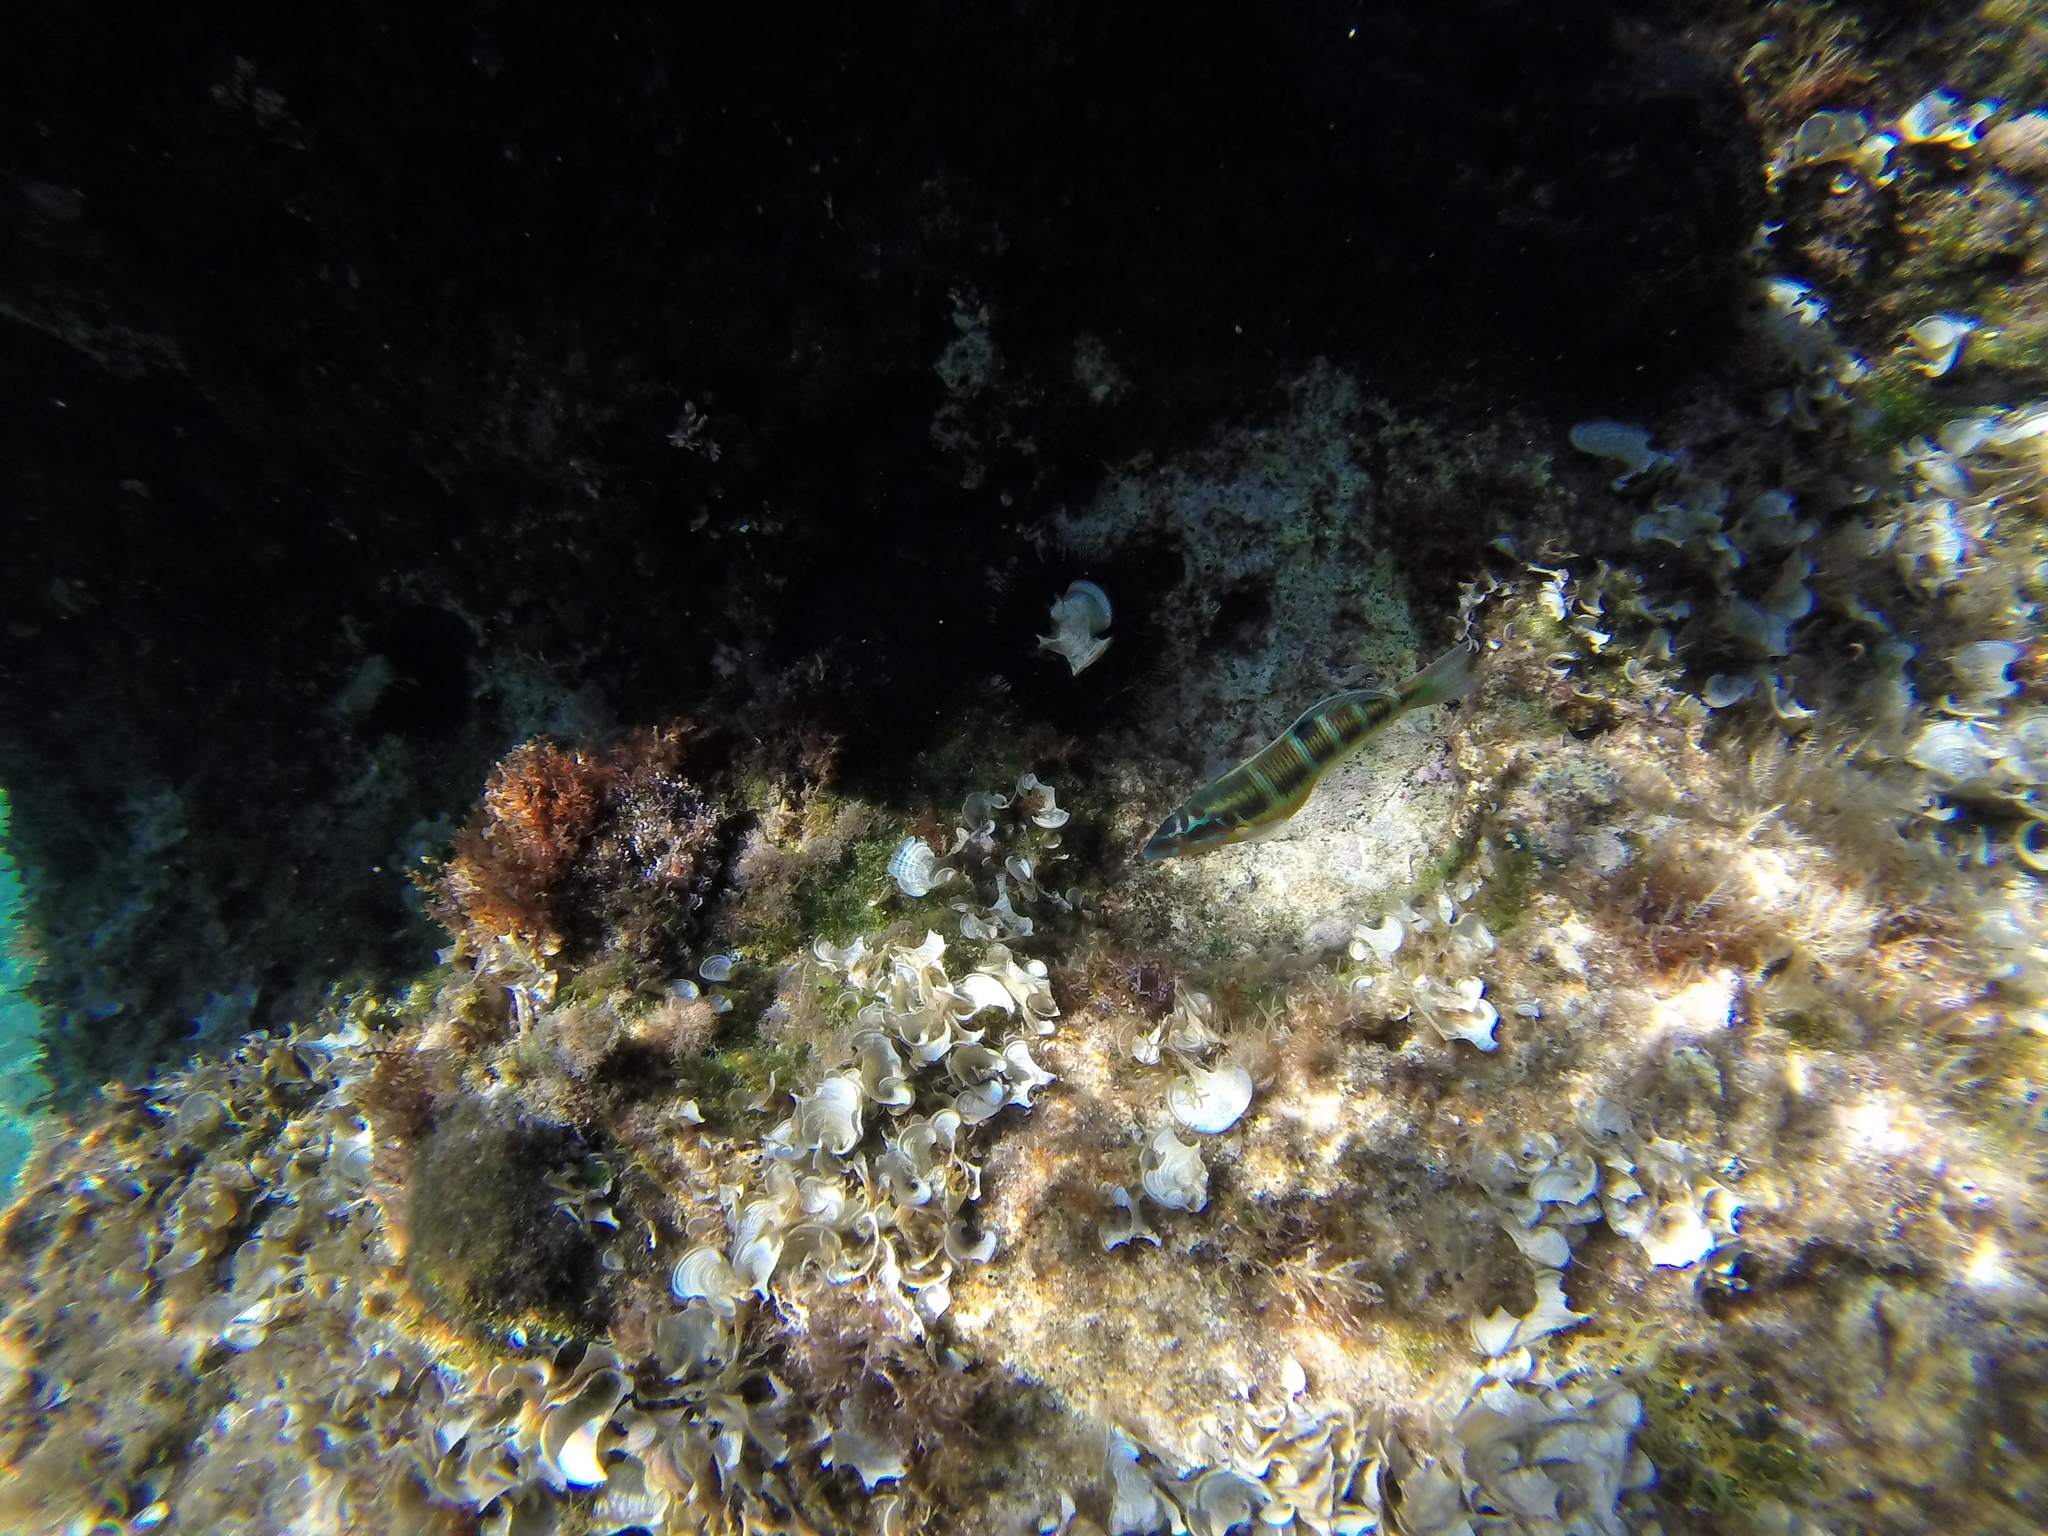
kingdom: Animalia
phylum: Chordata
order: Perciformes
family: Labridae
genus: Thalassoma
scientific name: Thalassoma pavo
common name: Ornate wrasse
